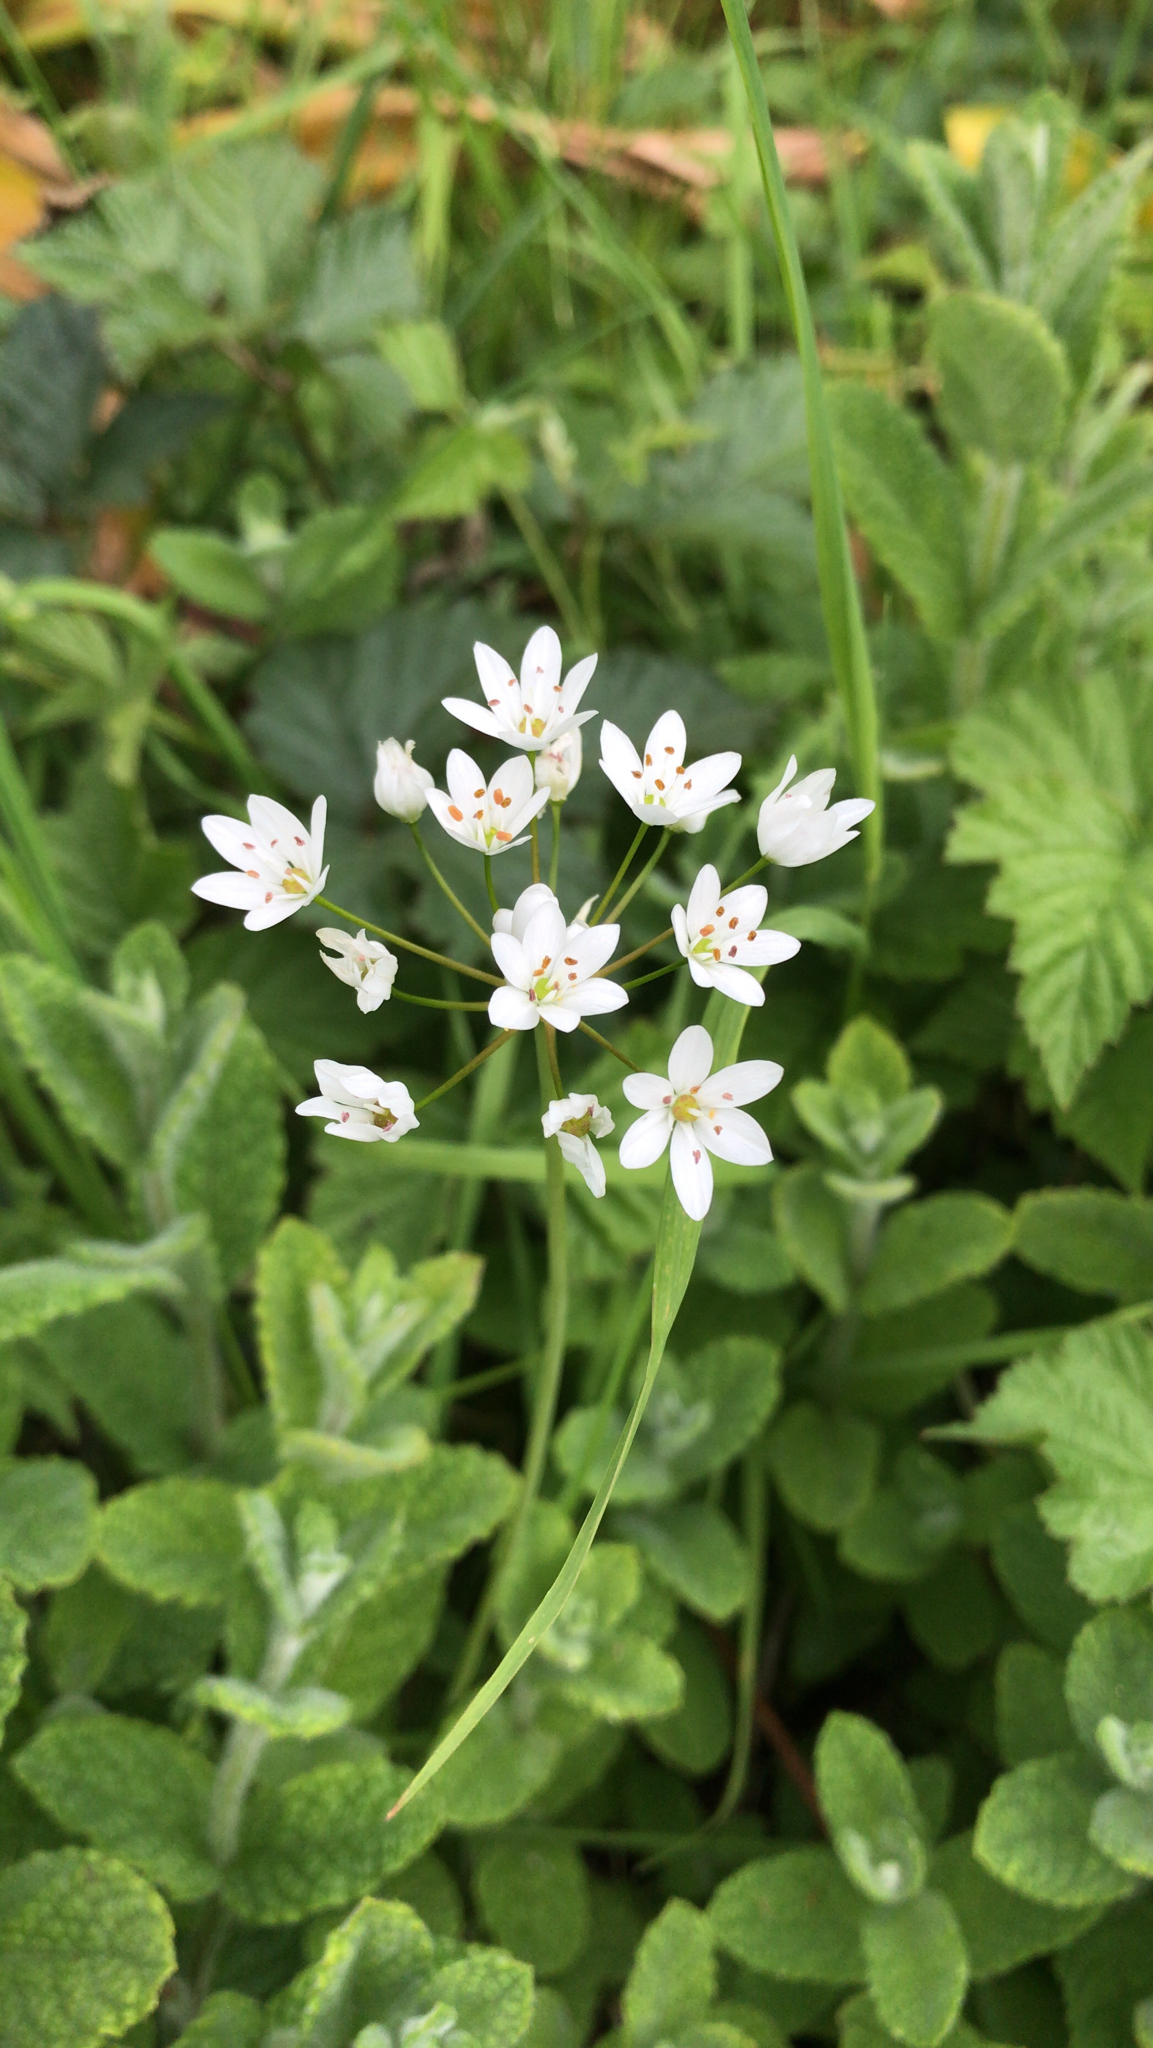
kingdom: Plantae
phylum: Tracheophyta
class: Liliopsida
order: Asparagales
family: Amaryllidaceae
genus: Allium
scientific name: Allium neapolitanum
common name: Neapolitan garlic
